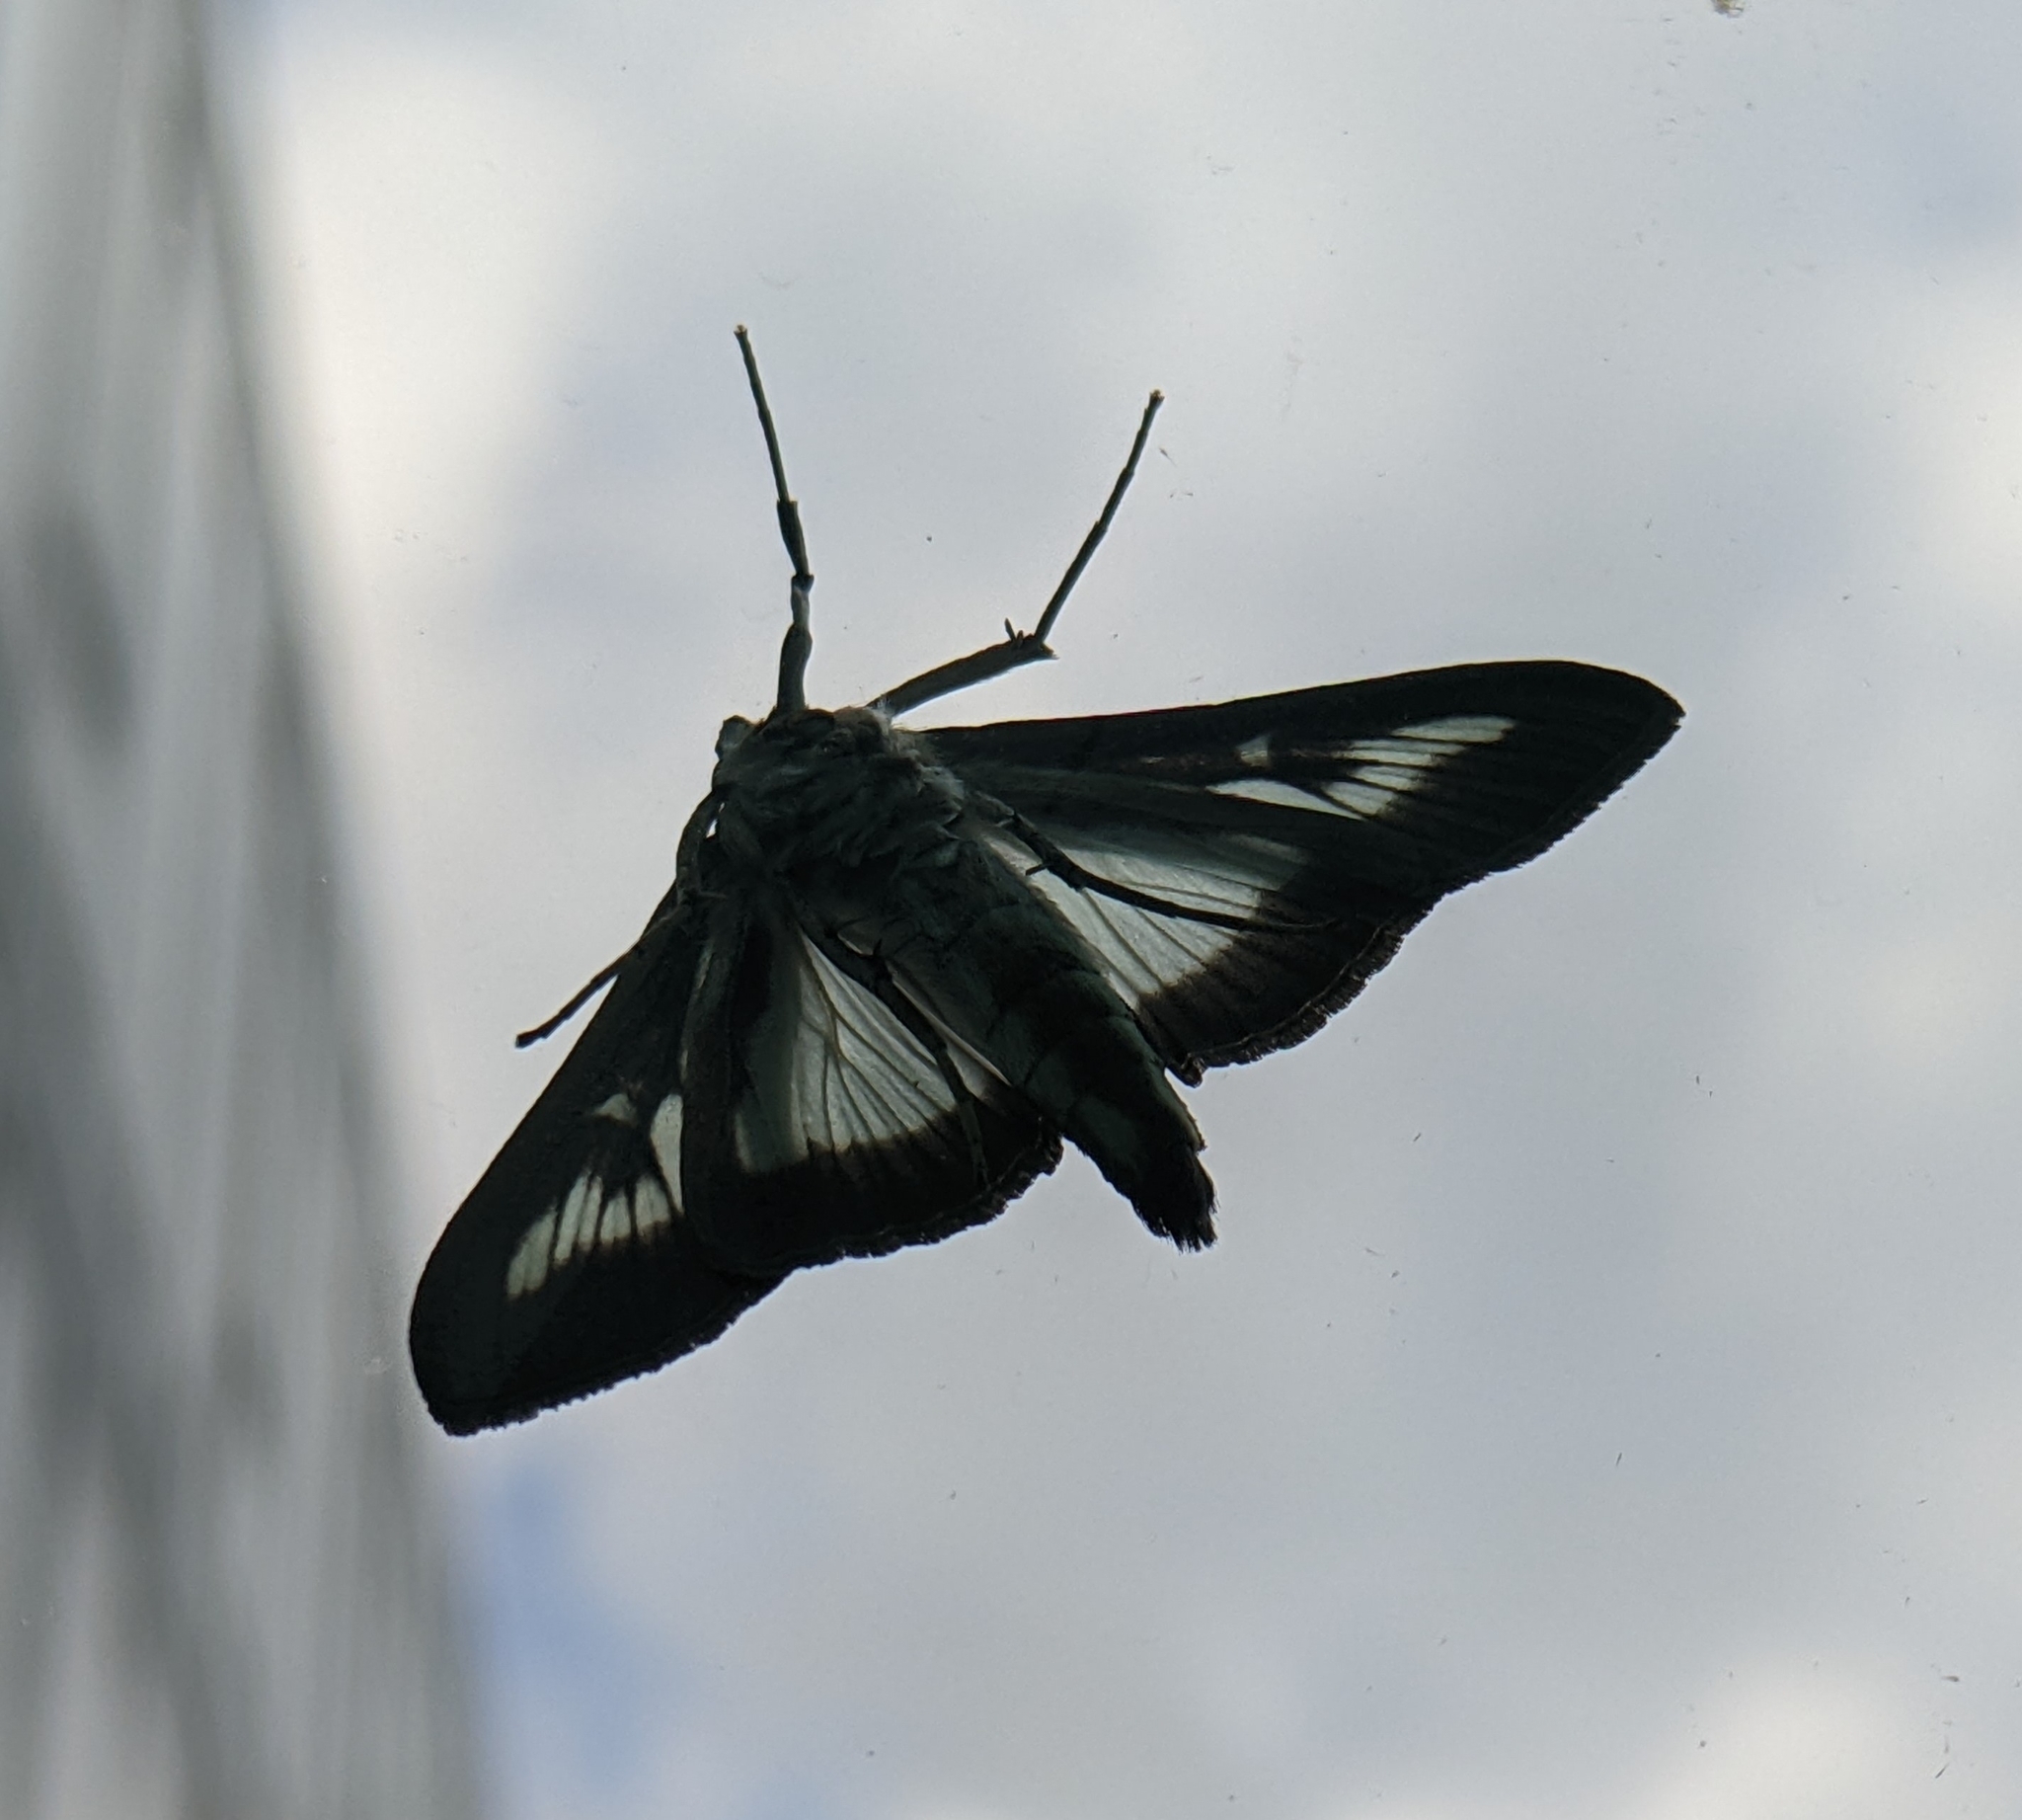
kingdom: Animalia
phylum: Arthropoda
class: Insecta
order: Lepidoptera
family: Crambidae
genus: Cydalima
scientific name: Cydalima perspectalis
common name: Box tree moth
